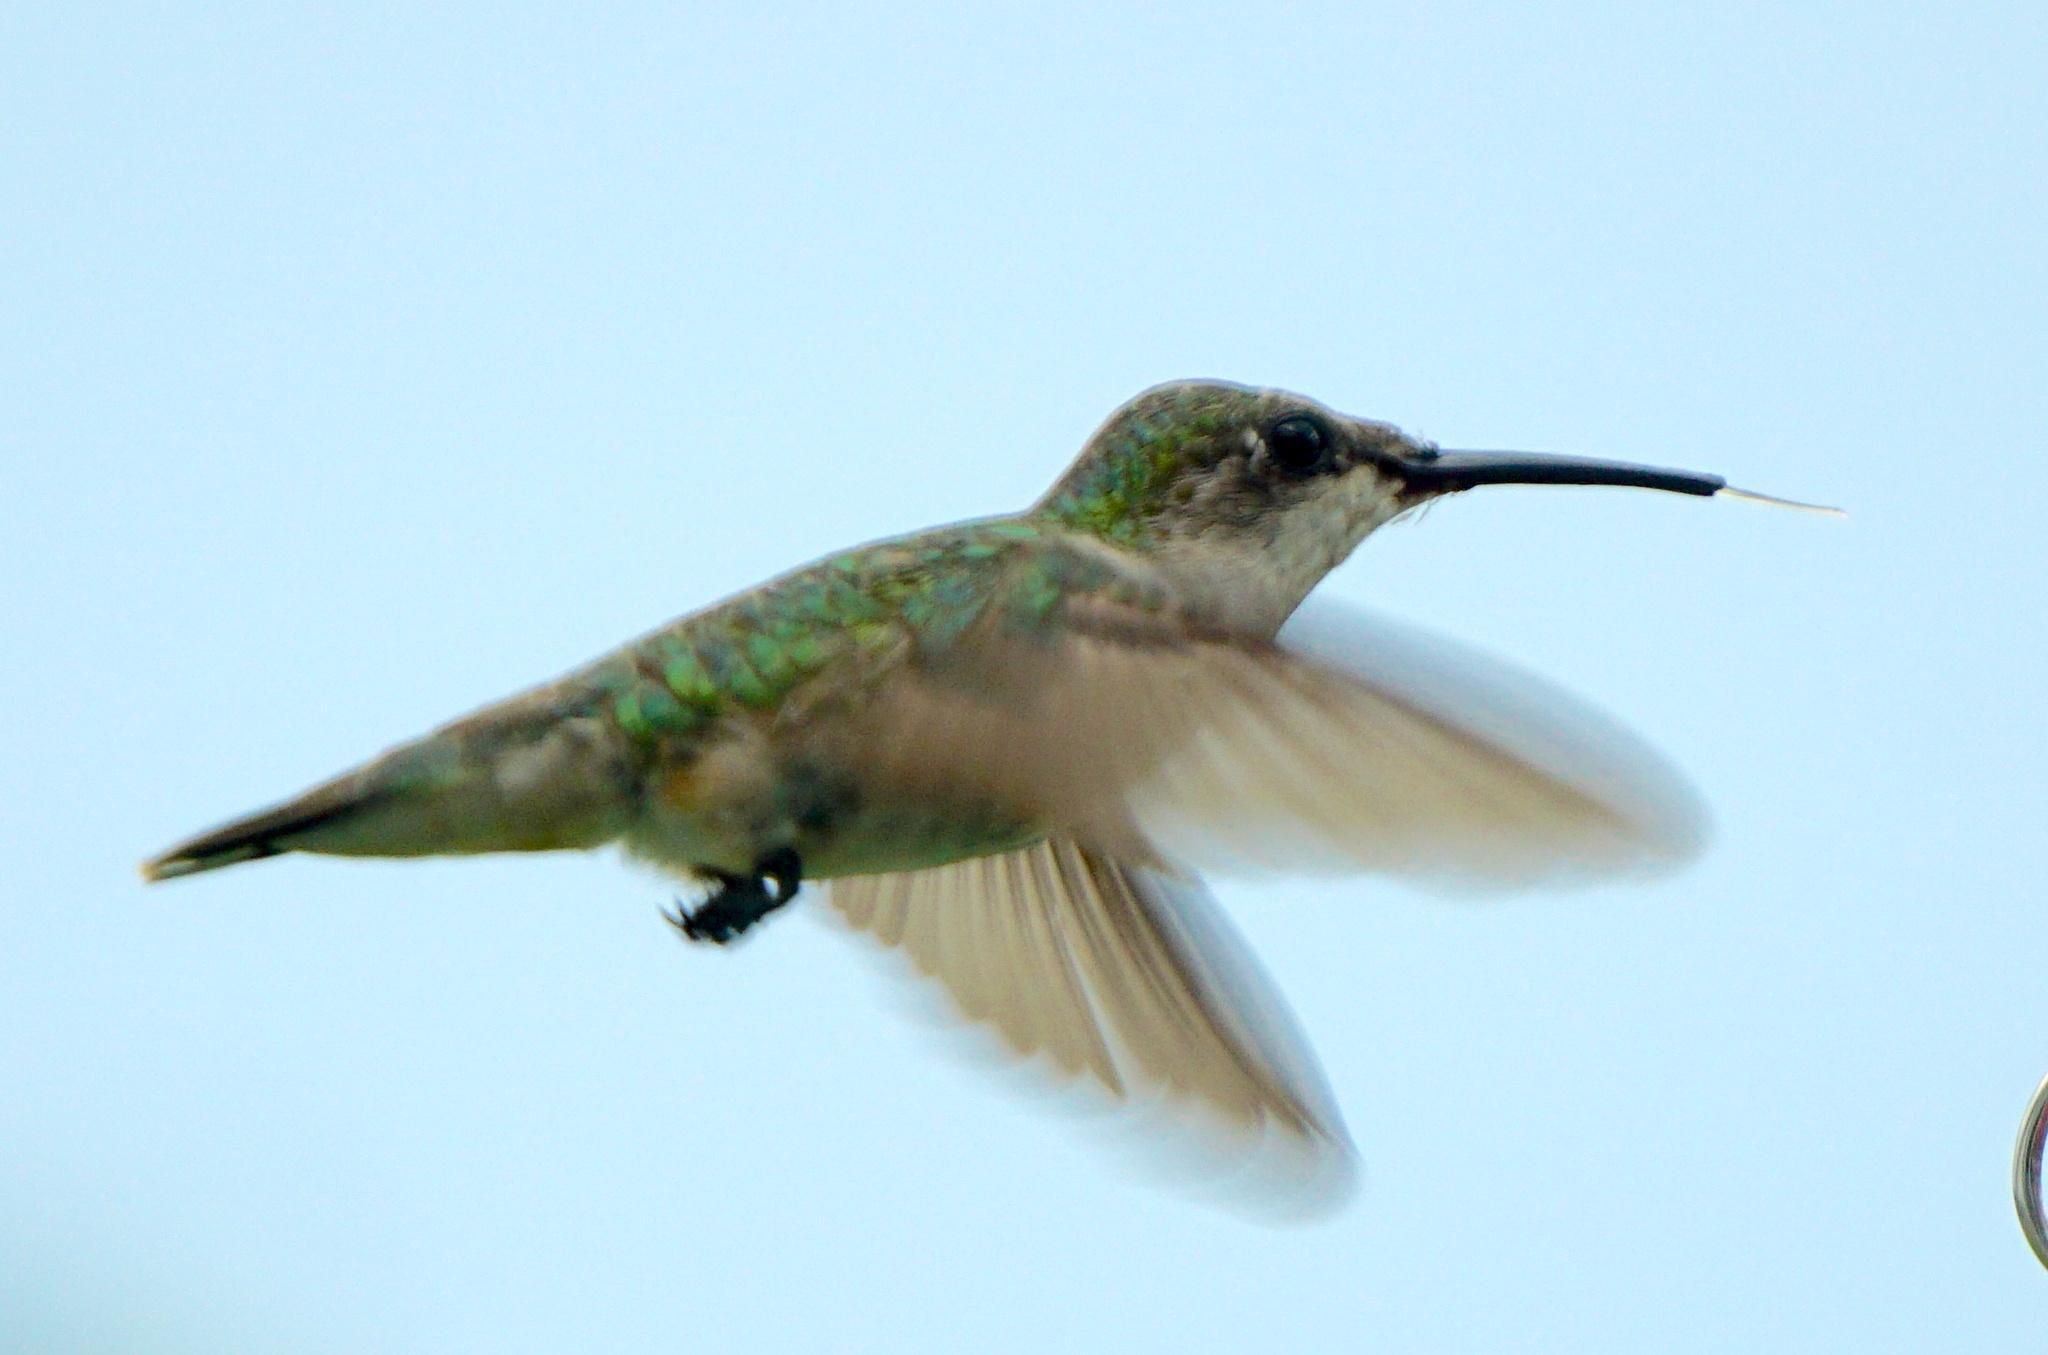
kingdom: Animalia
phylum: Chordata
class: Aves
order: Apodiformes
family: Trochilidae
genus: Archilochus
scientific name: Archilochus colubris
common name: Ruby-throated hummingbird
